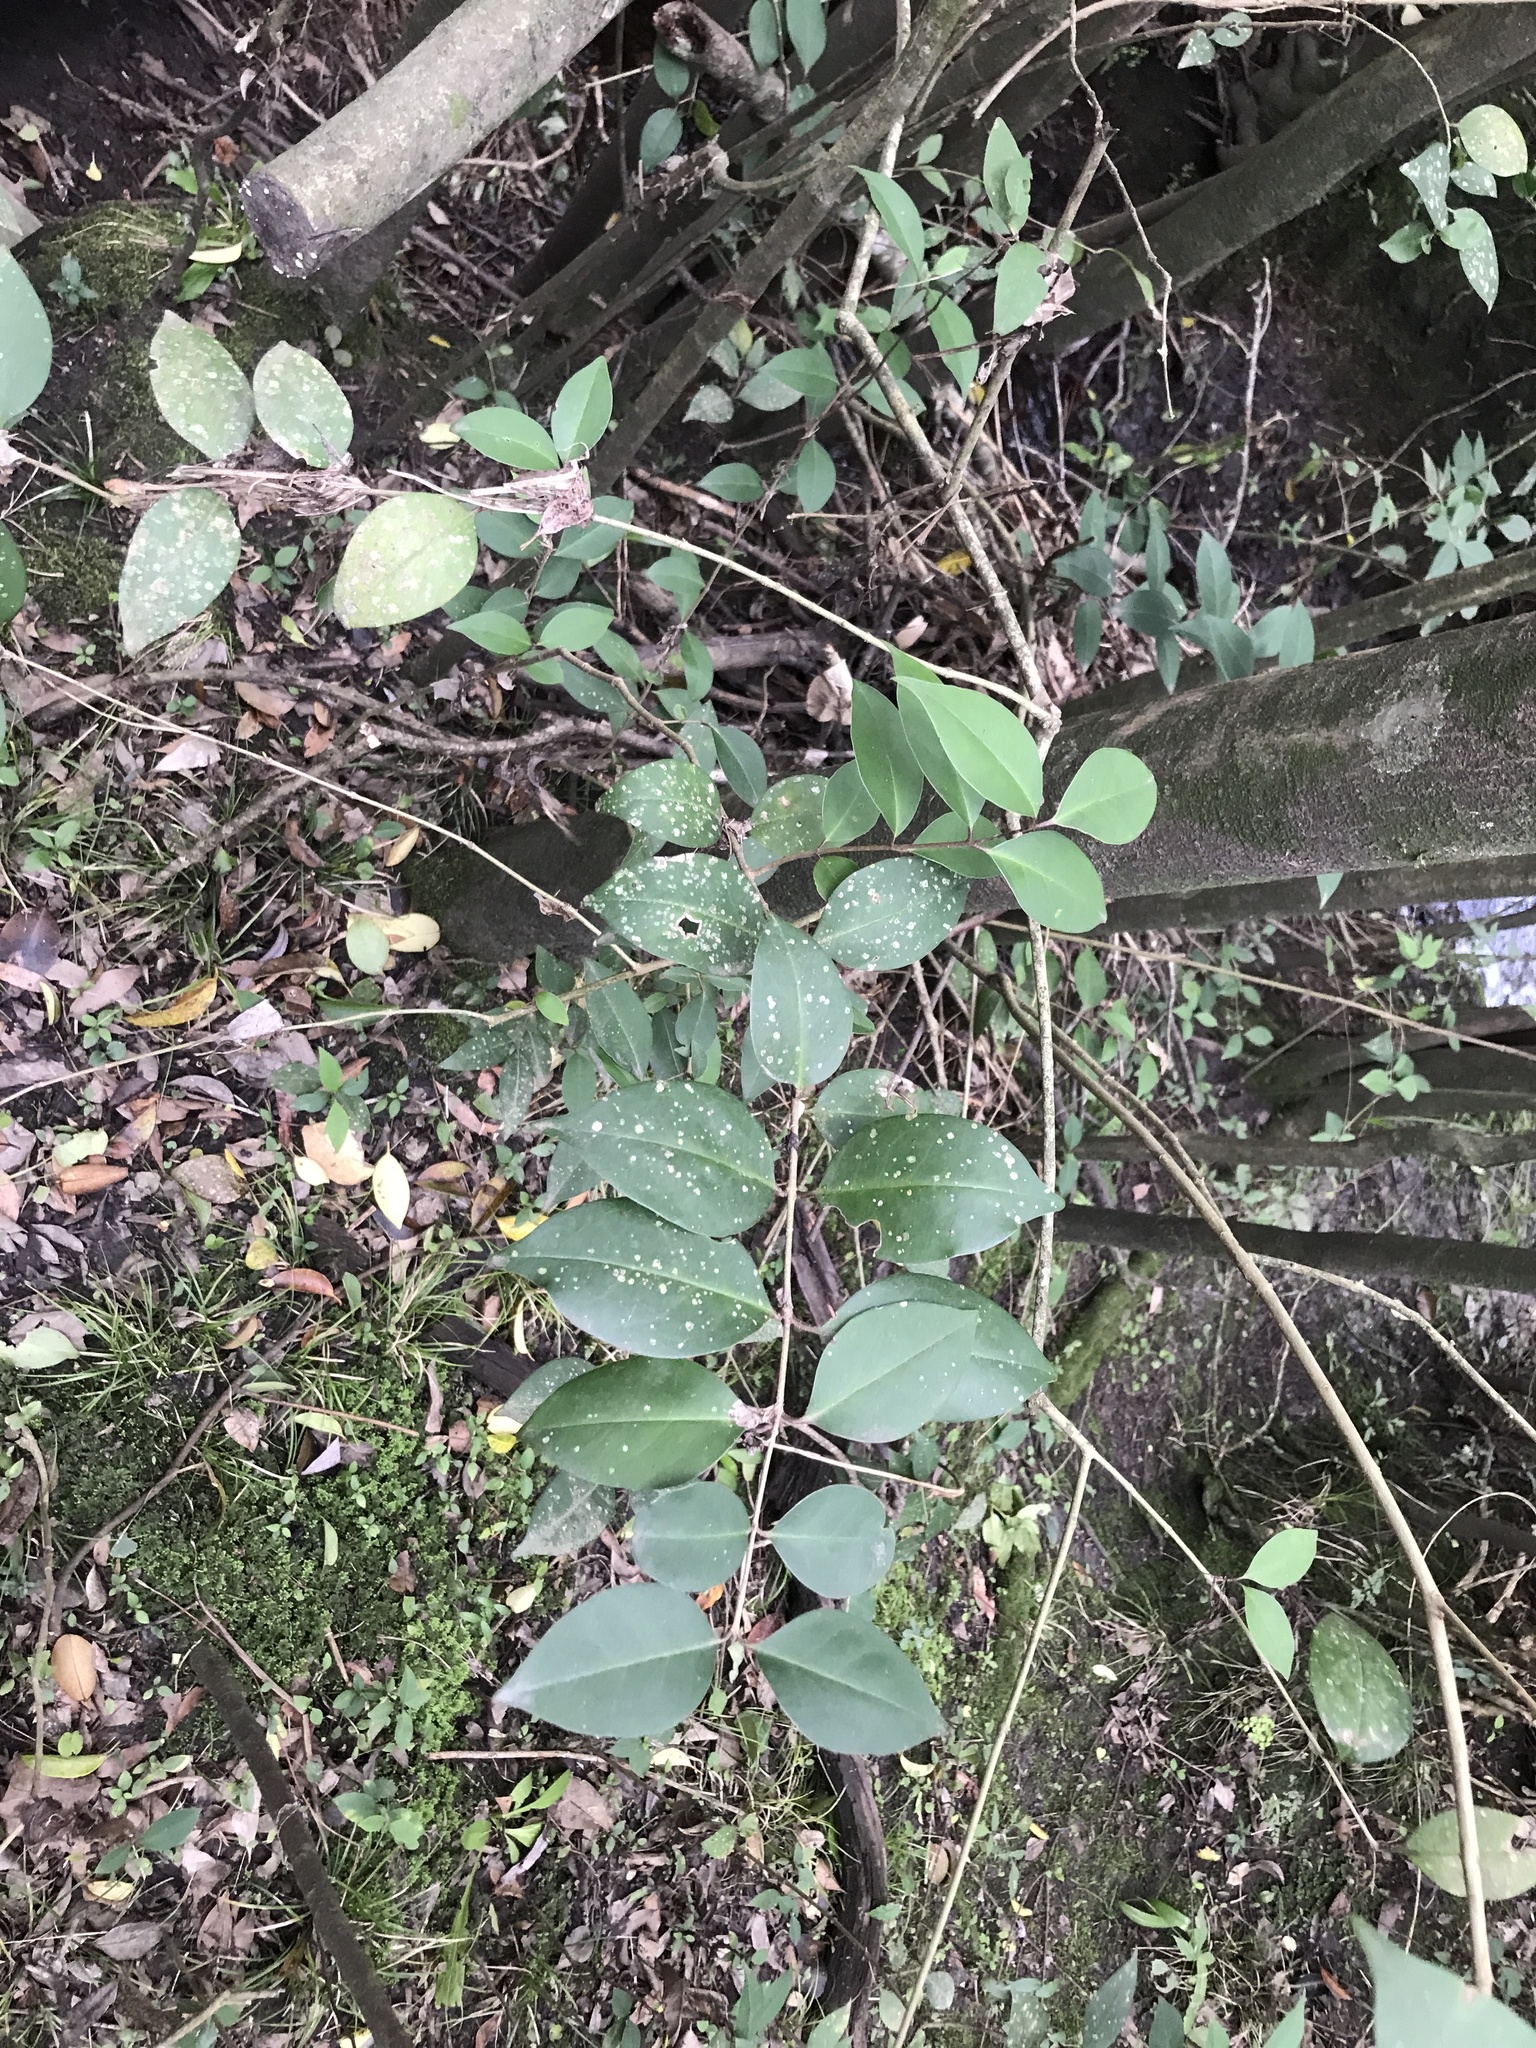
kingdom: Plantae
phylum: Tracheophyta
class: Magnoliopsida
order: Lamiales
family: Oleaceae
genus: Ligustrum
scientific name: Ligustrum lucidum
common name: Glossy privet
